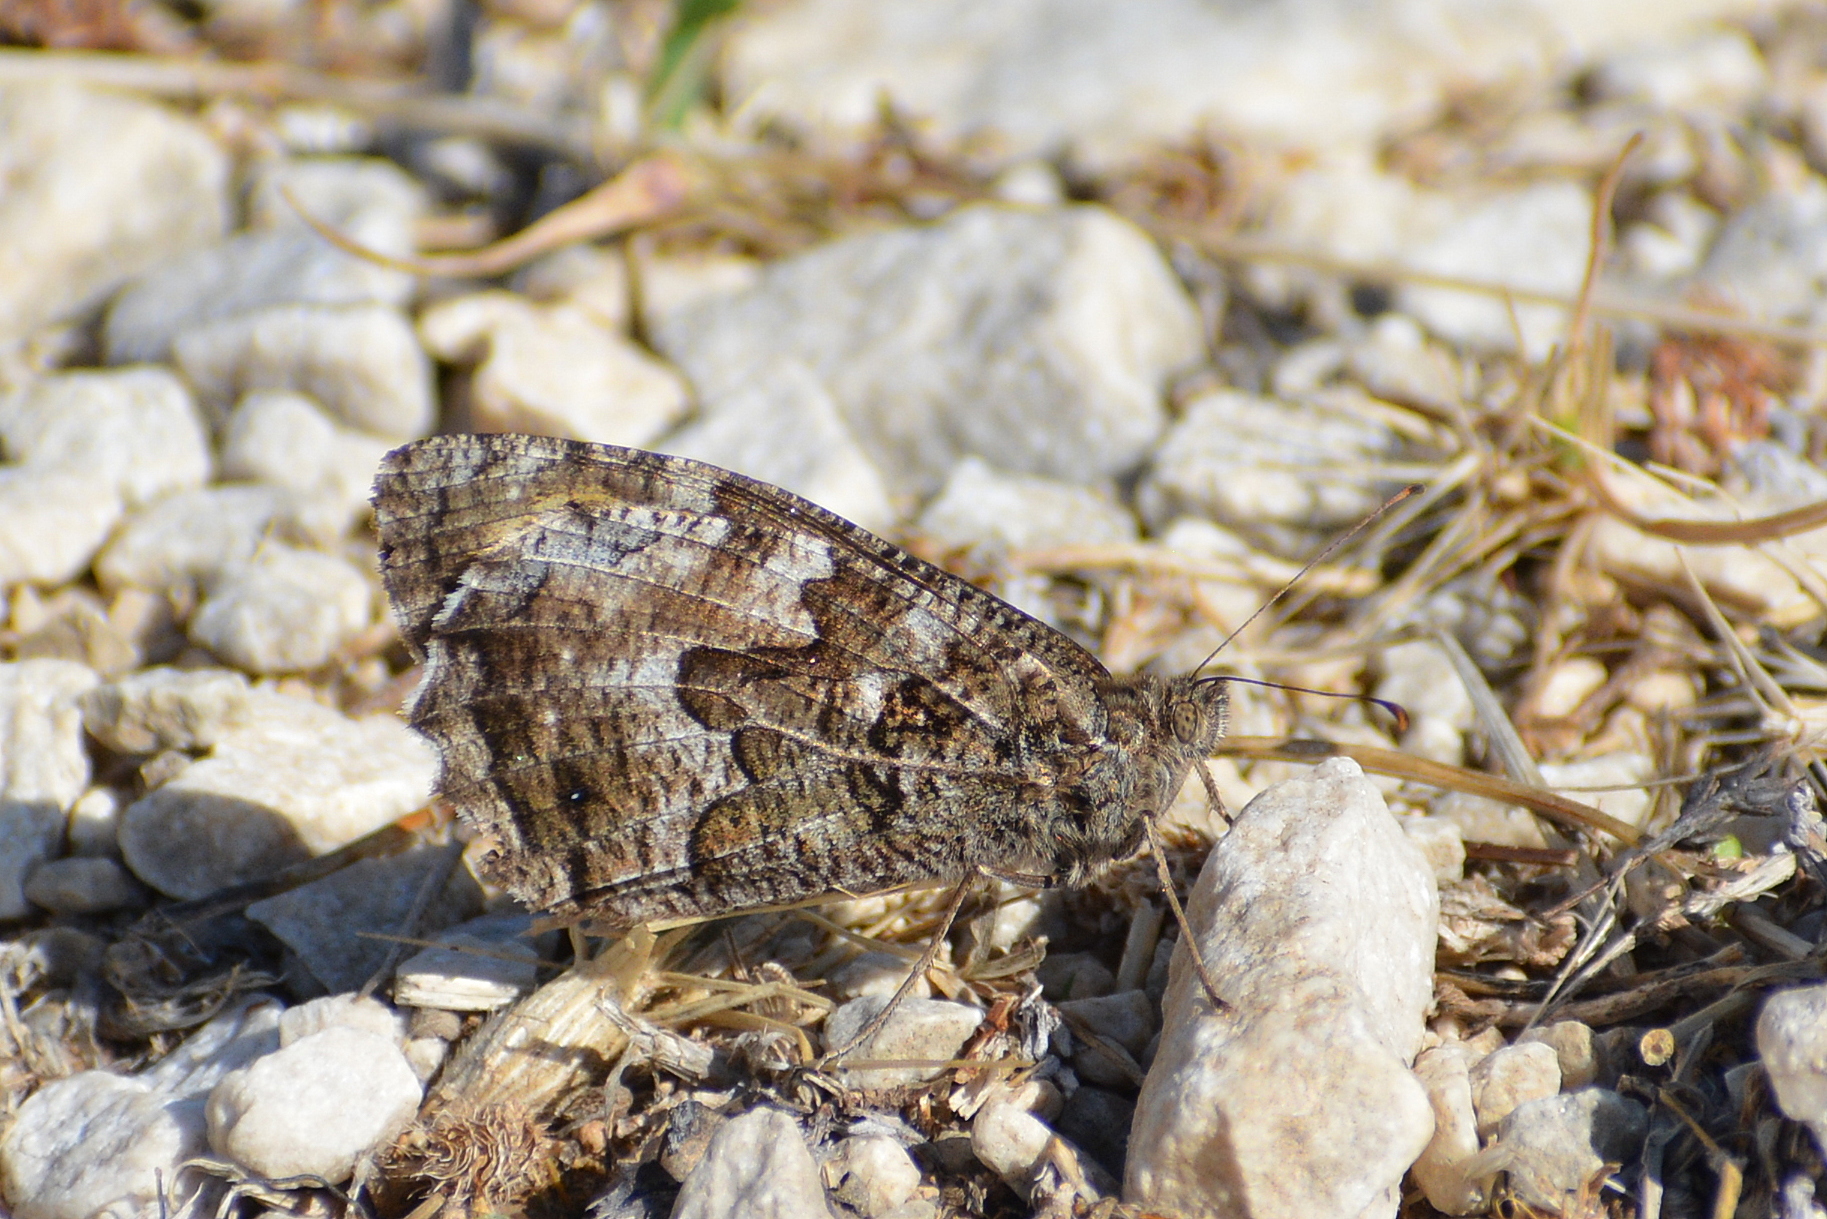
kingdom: Animalia
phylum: Arthropoda
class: Insecta
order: Lepidoptera
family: Nymphalidae
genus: Hipparchia
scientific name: Hipparchia semele
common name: Grayling
